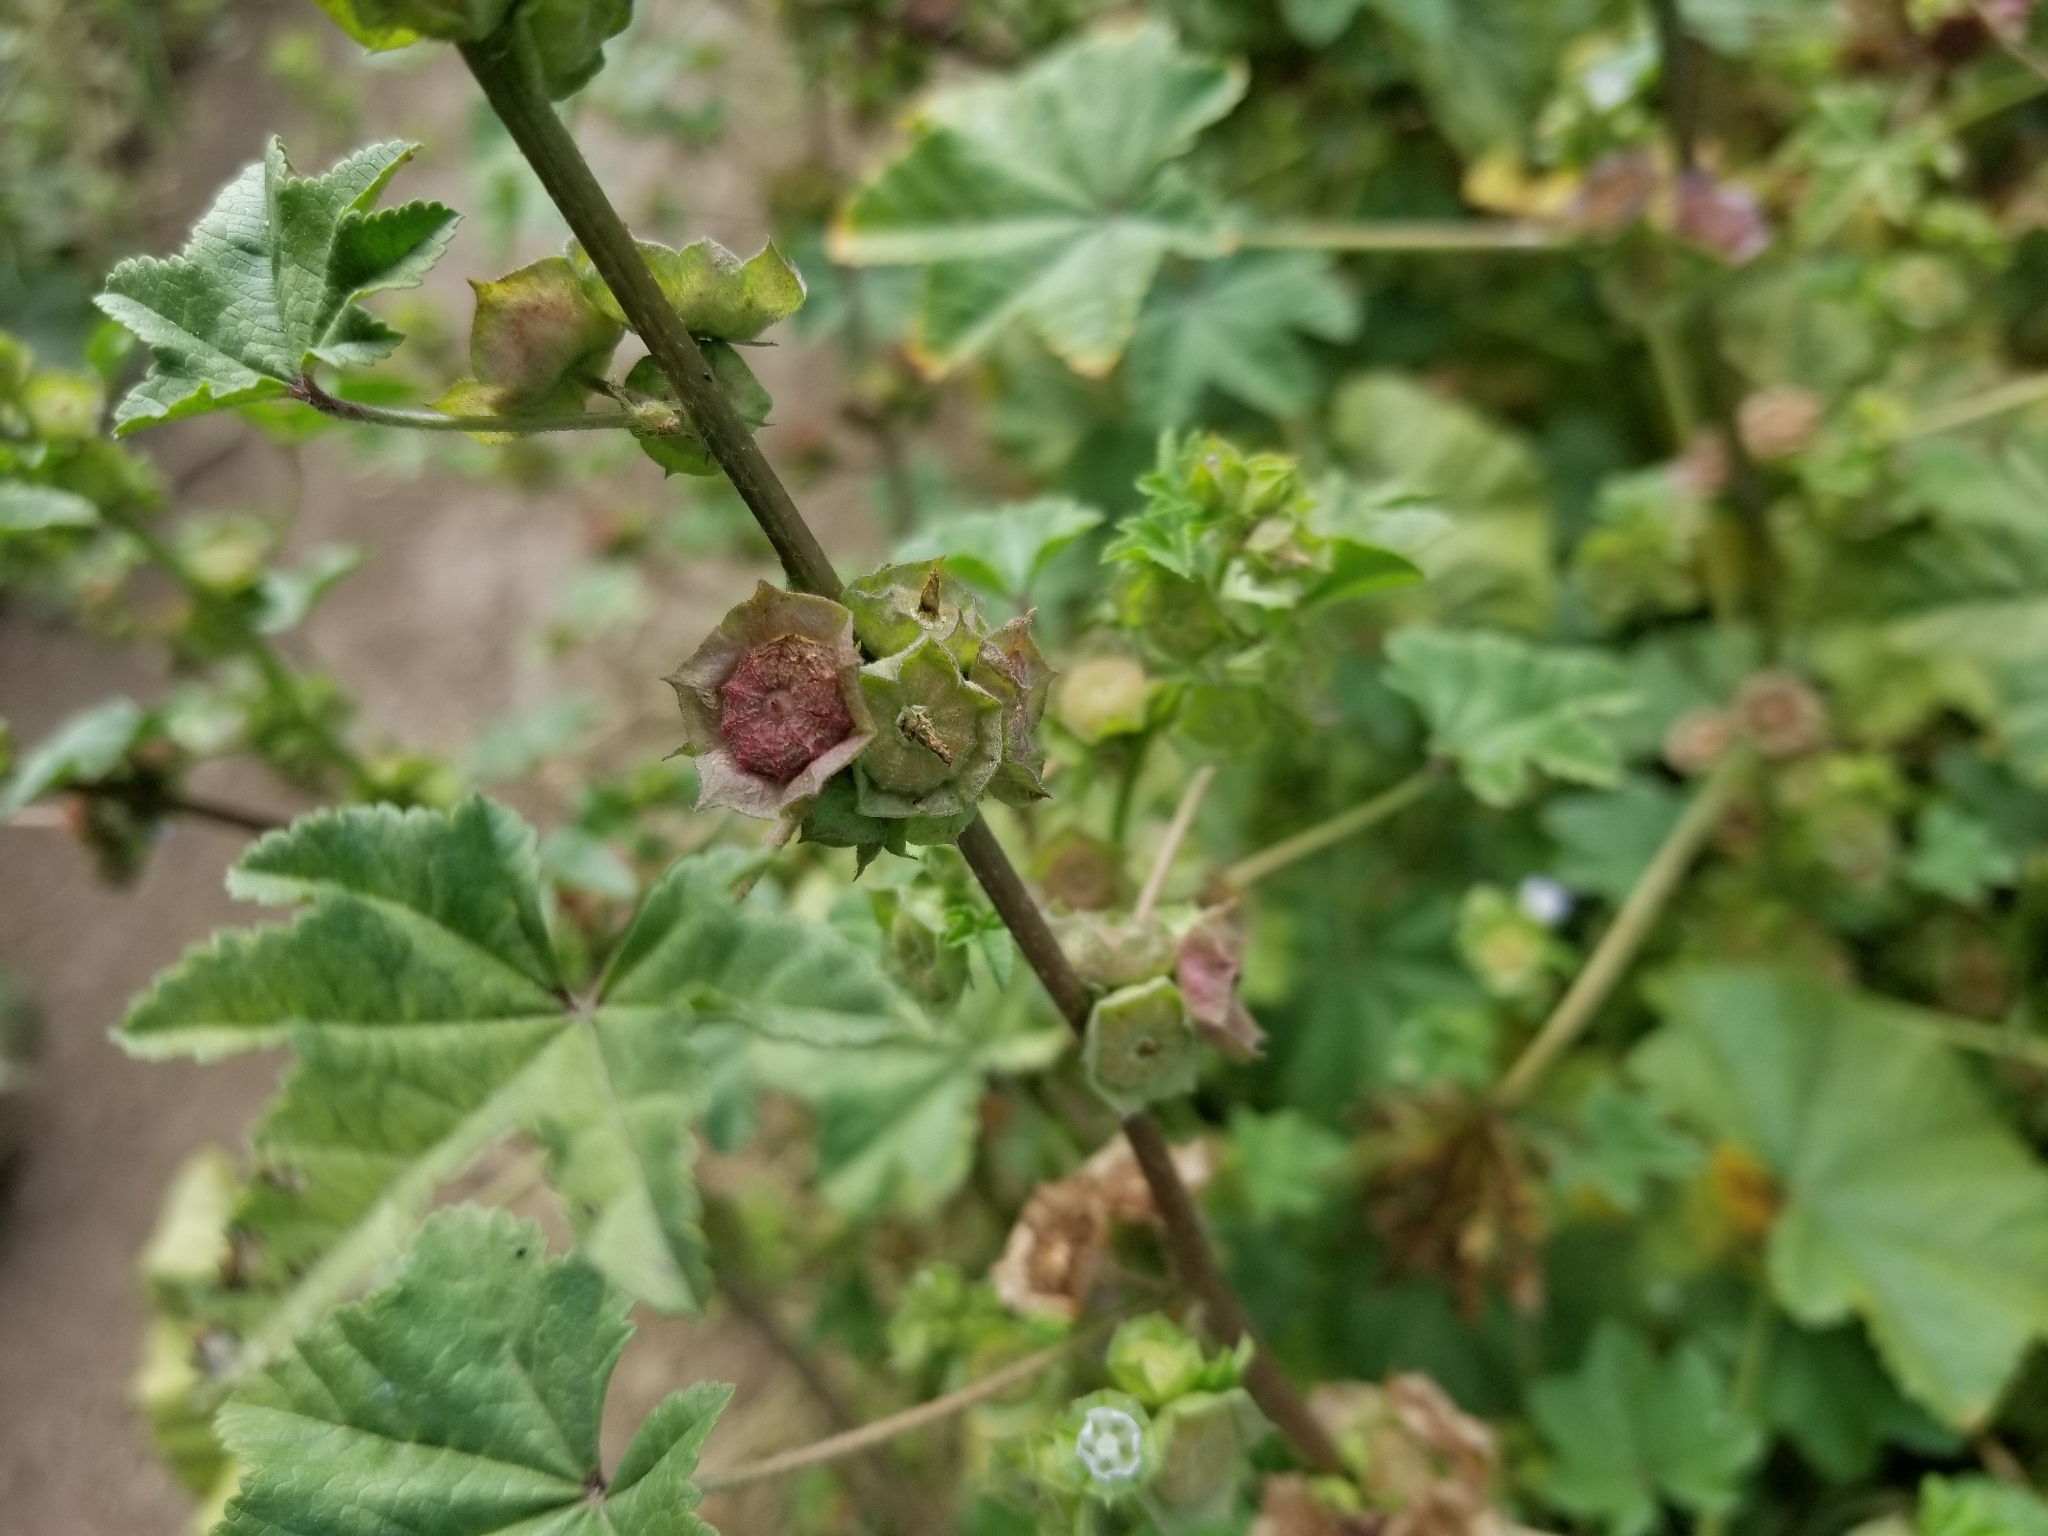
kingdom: Plantae
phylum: Tracheophyta
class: Magnoliopsida
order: Malvales
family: Malvaceae
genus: Malva
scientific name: Malva parviflora
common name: Least mallow
